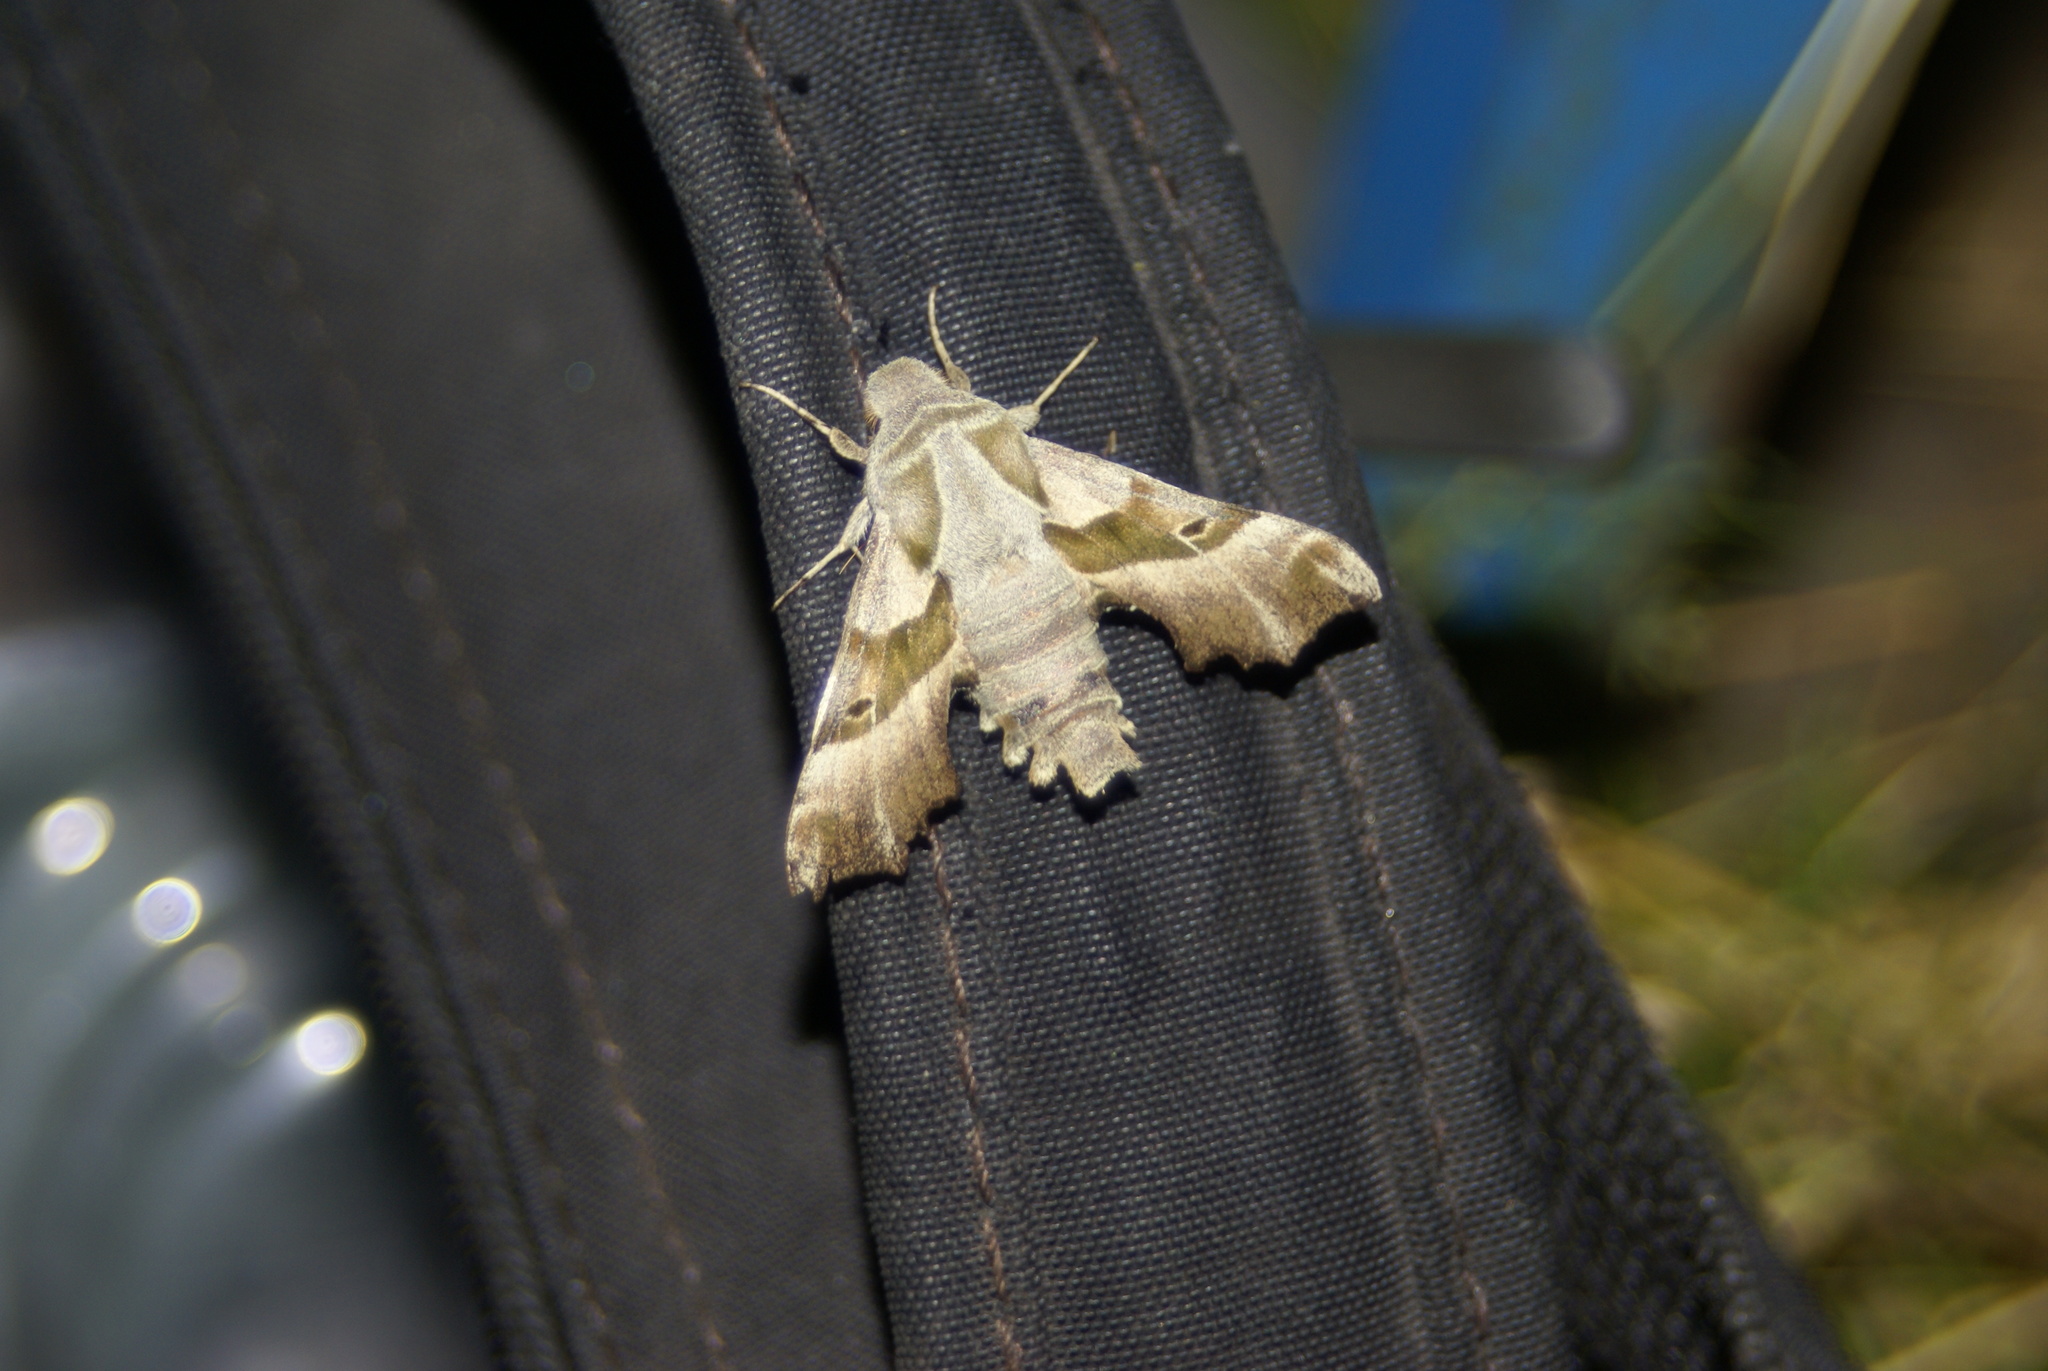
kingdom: Animalia
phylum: Arthropoda
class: Insecta
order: Lepidoptera
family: Sphingidae
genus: Proserpinus
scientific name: Proserpinus proserpina
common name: Willowherb hawkmoth
